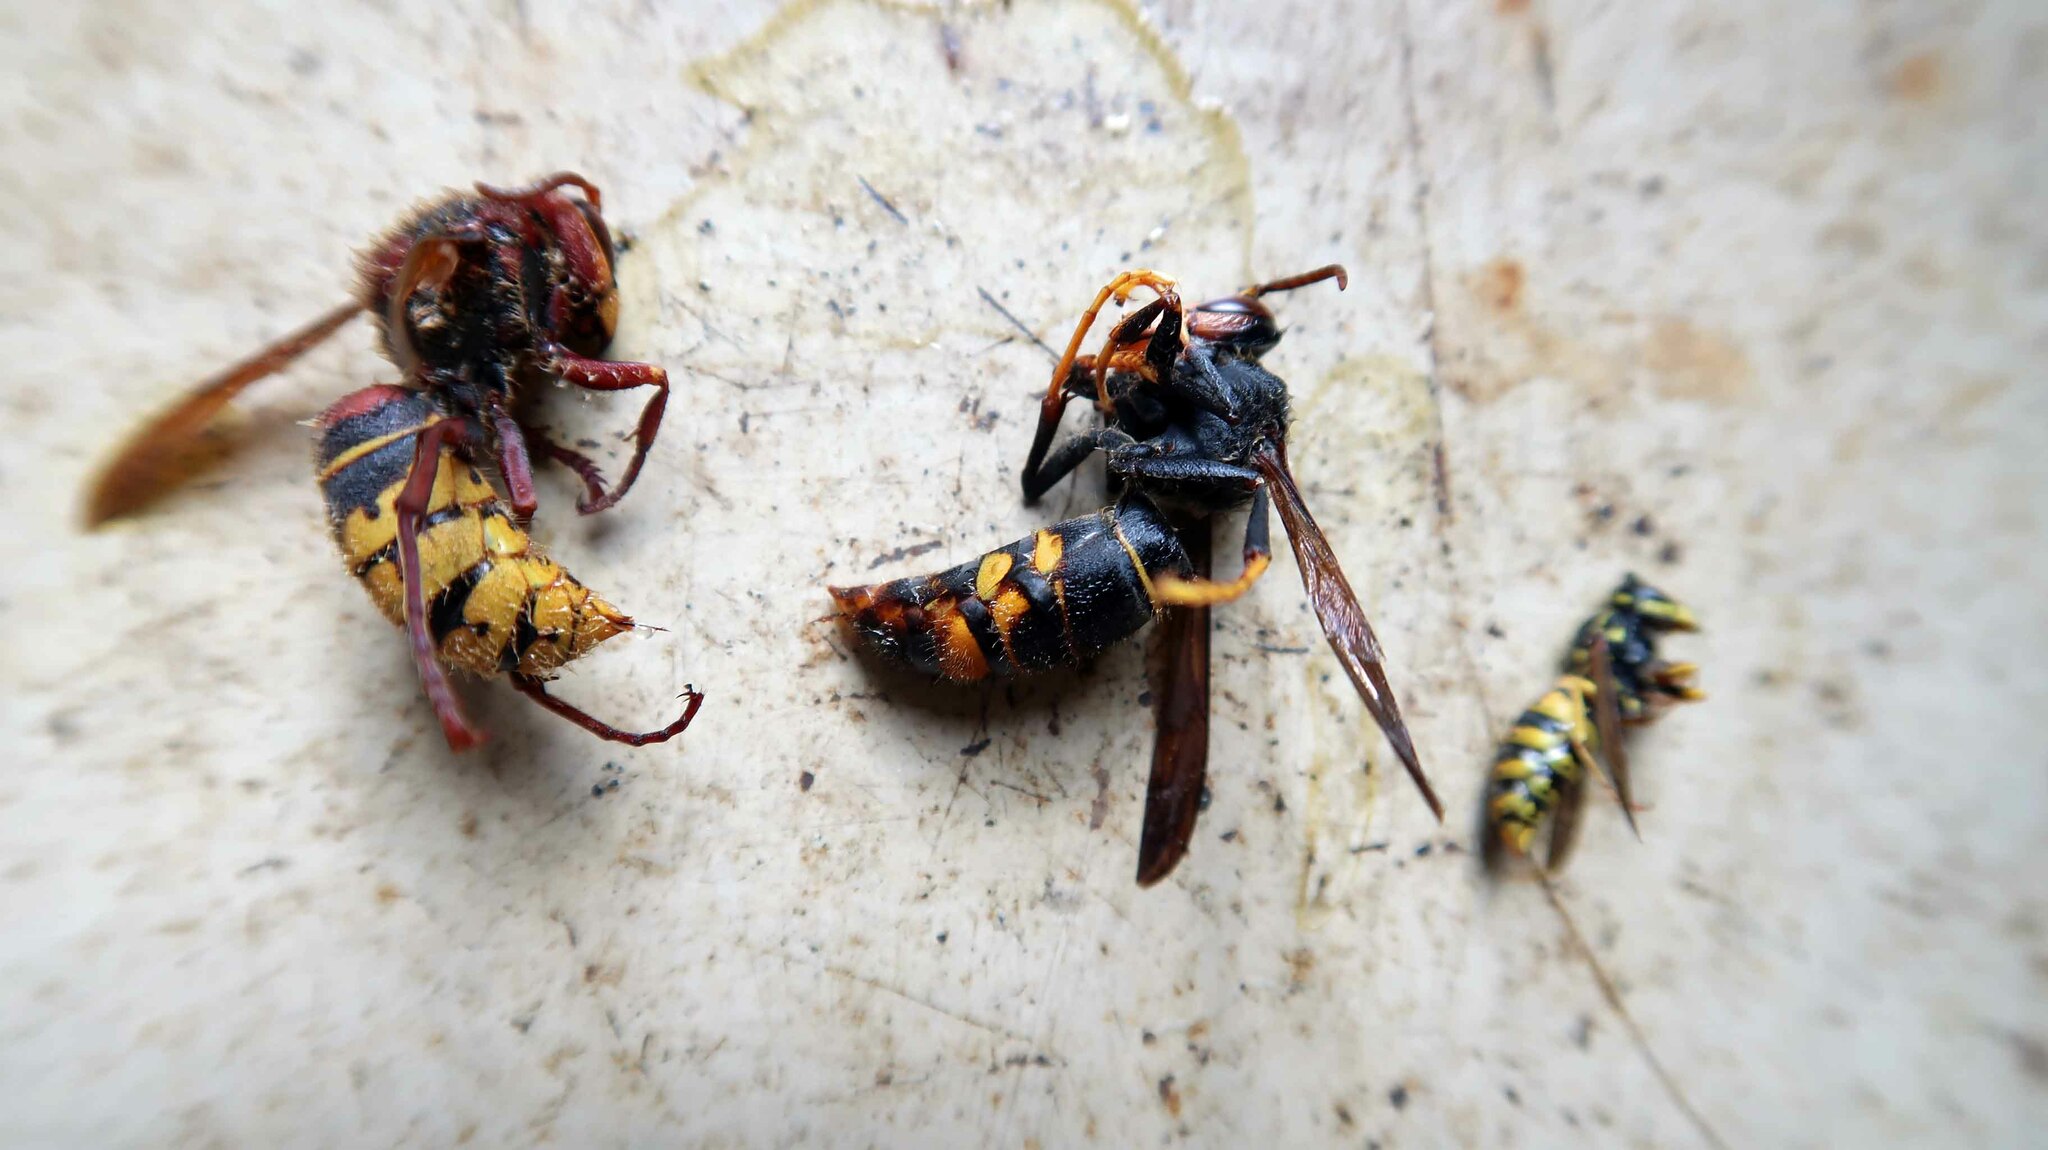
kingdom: Animalia
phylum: Arthropoda
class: Insecta
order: Hymenoptera
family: Vespidae
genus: Vespa
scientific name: Vespa velutina
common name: Asian hornet
